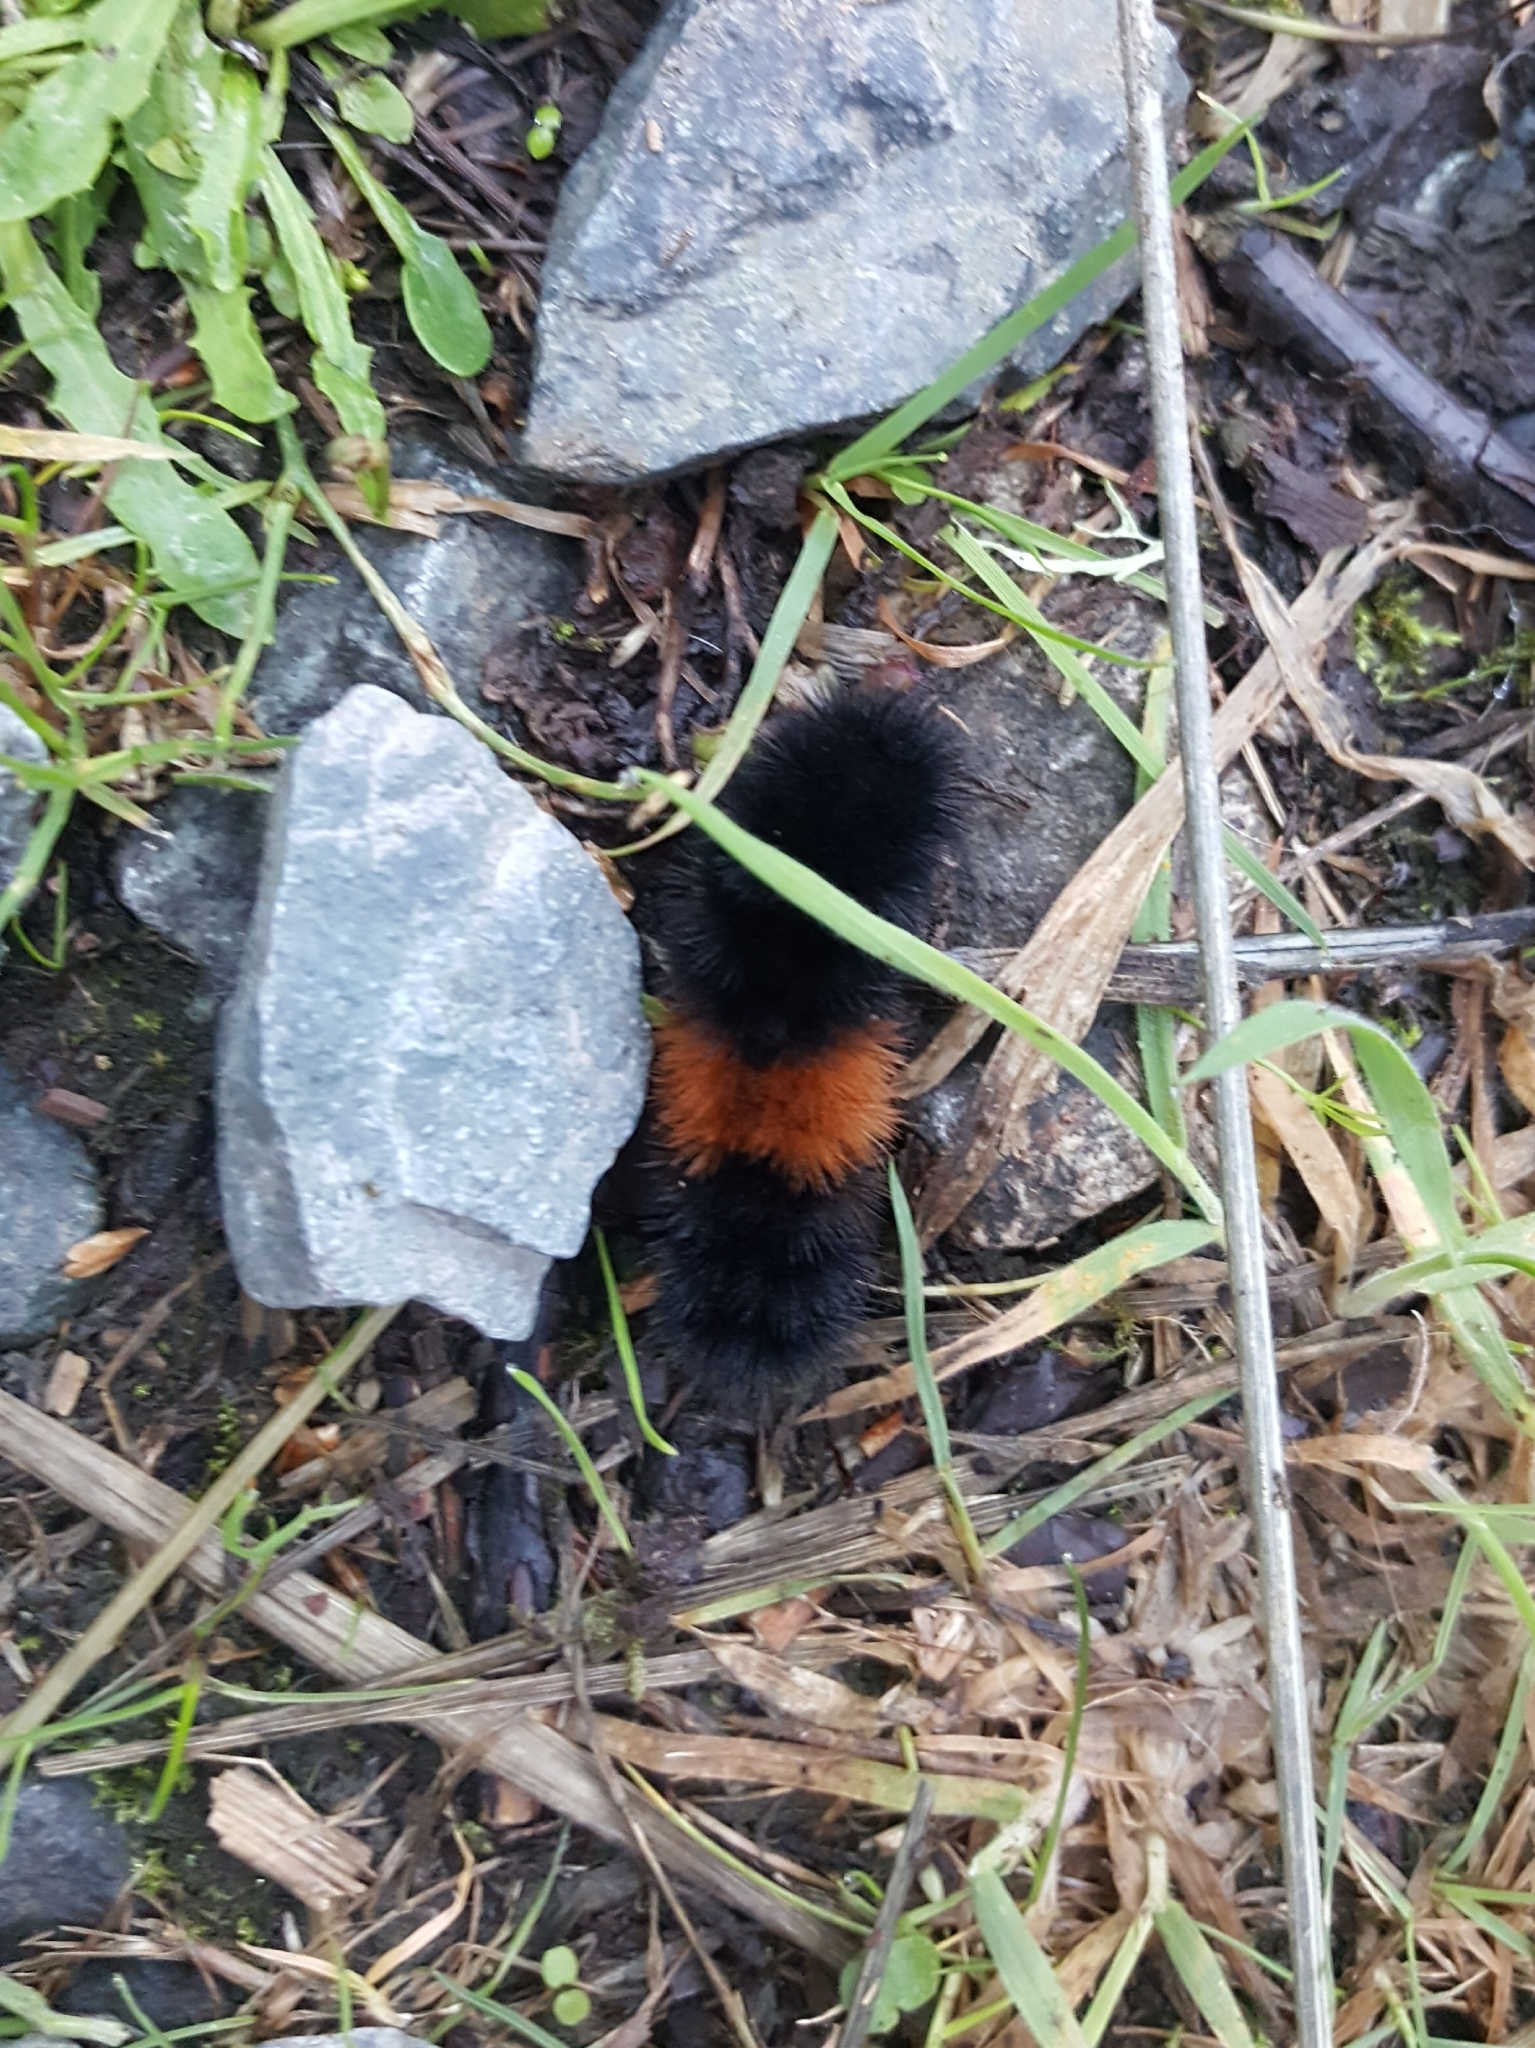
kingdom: Animalia
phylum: Arthropoda
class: Insecta
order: Lepidoptera
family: Erebidae
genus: Pyrrharctia
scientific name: Pyrrharctia isabella
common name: Isabella tiger moth
